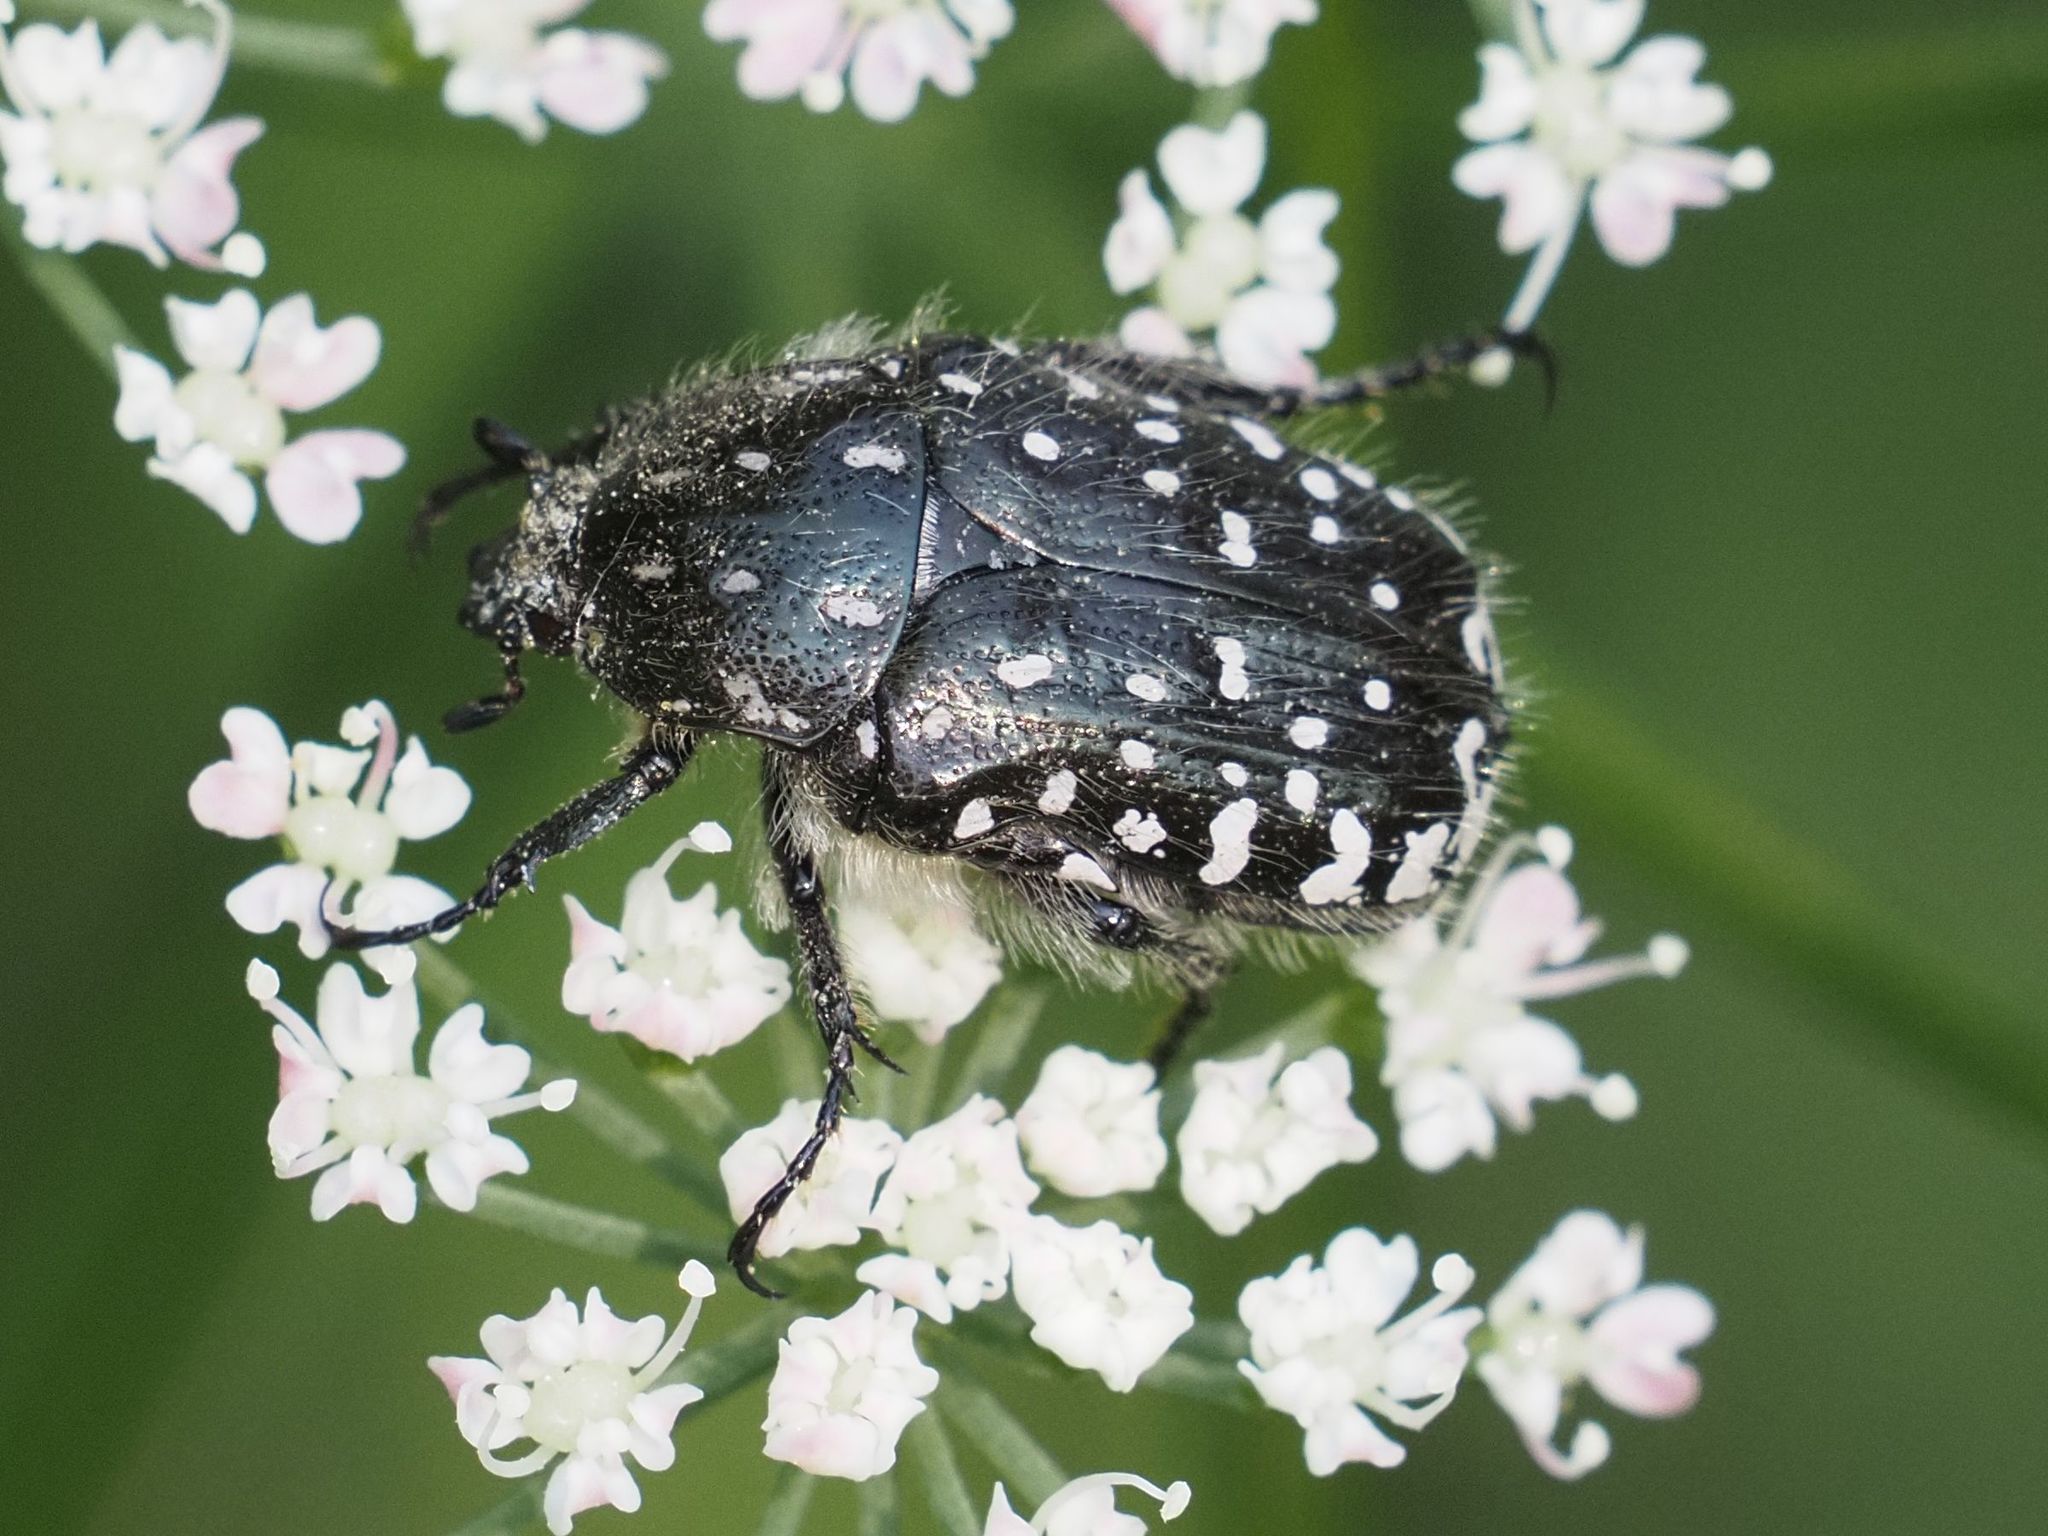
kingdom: Animalia
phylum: Arthropoda
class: Insecta
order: Coleoptera
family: Scarabaeidae
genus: Oxythyrea
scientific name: Oxythyrea funesta
